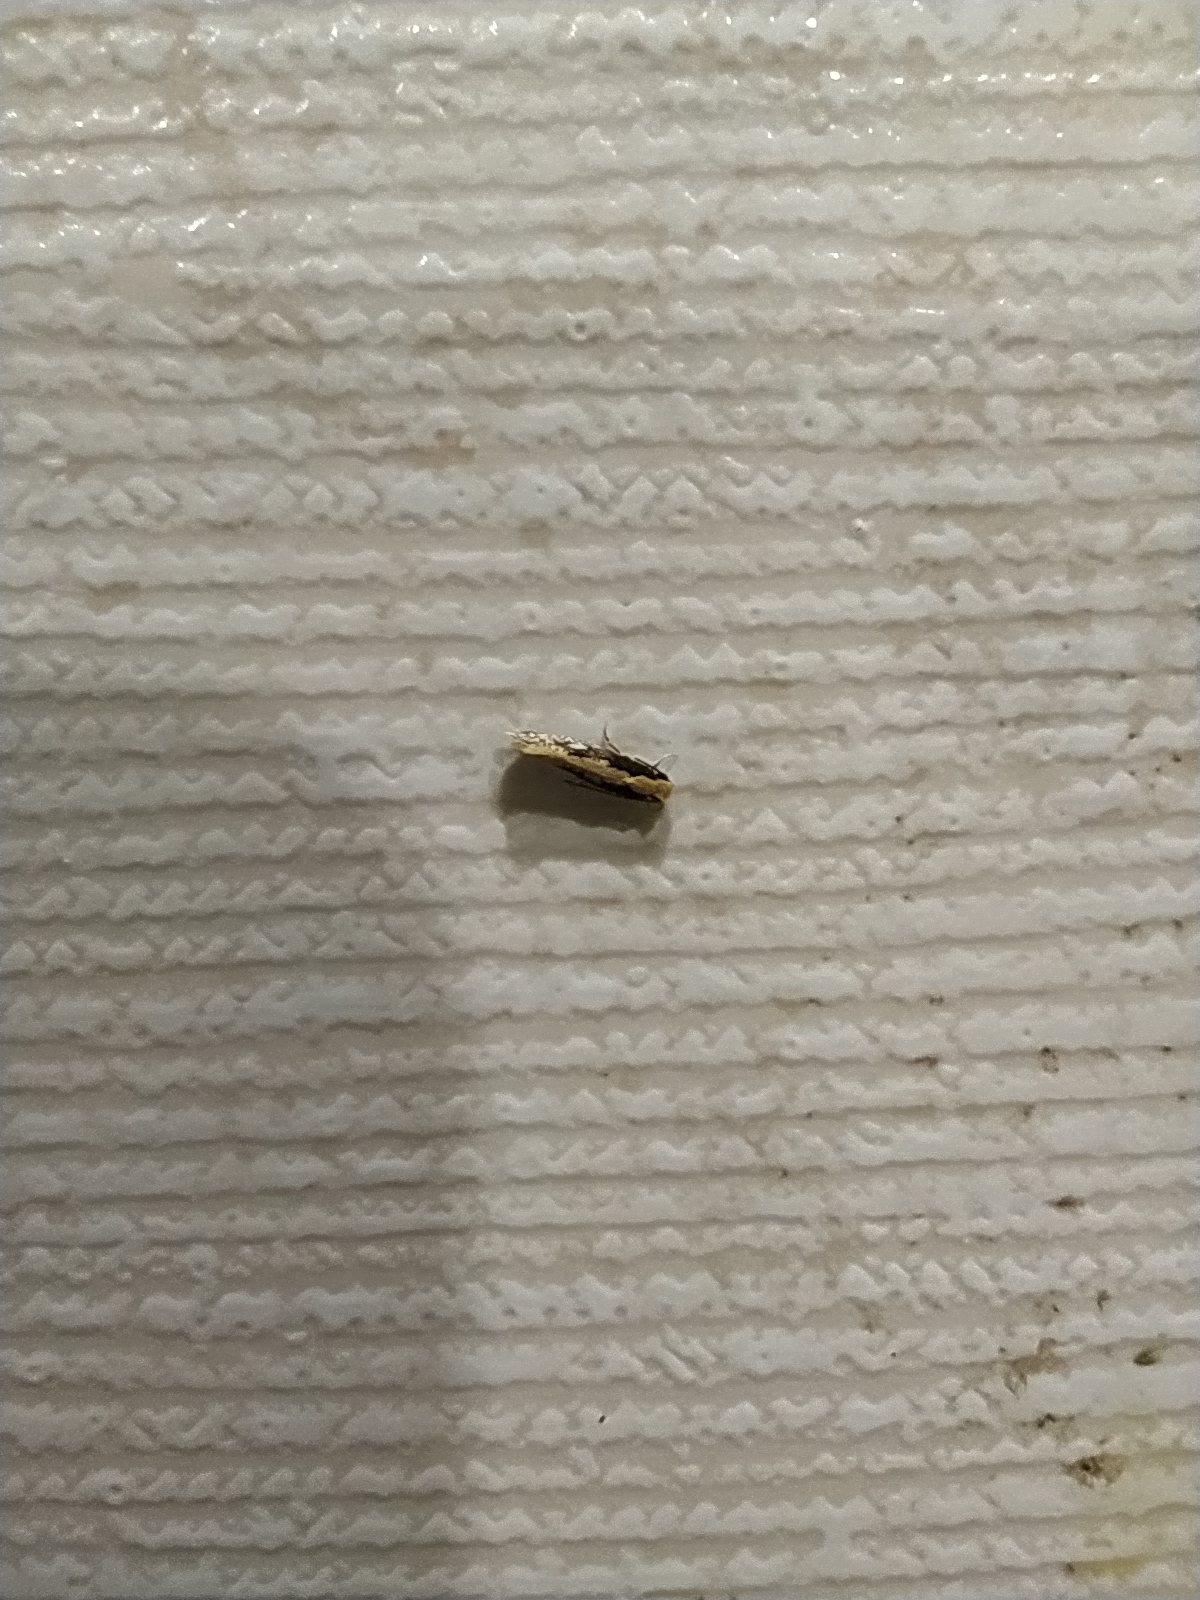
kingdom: Animalia
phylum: Arthropoda
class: Insecta
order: Lepidoptera
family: Tineidae
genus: Monopis
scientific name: Monopis obviella
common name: Tineid moth
